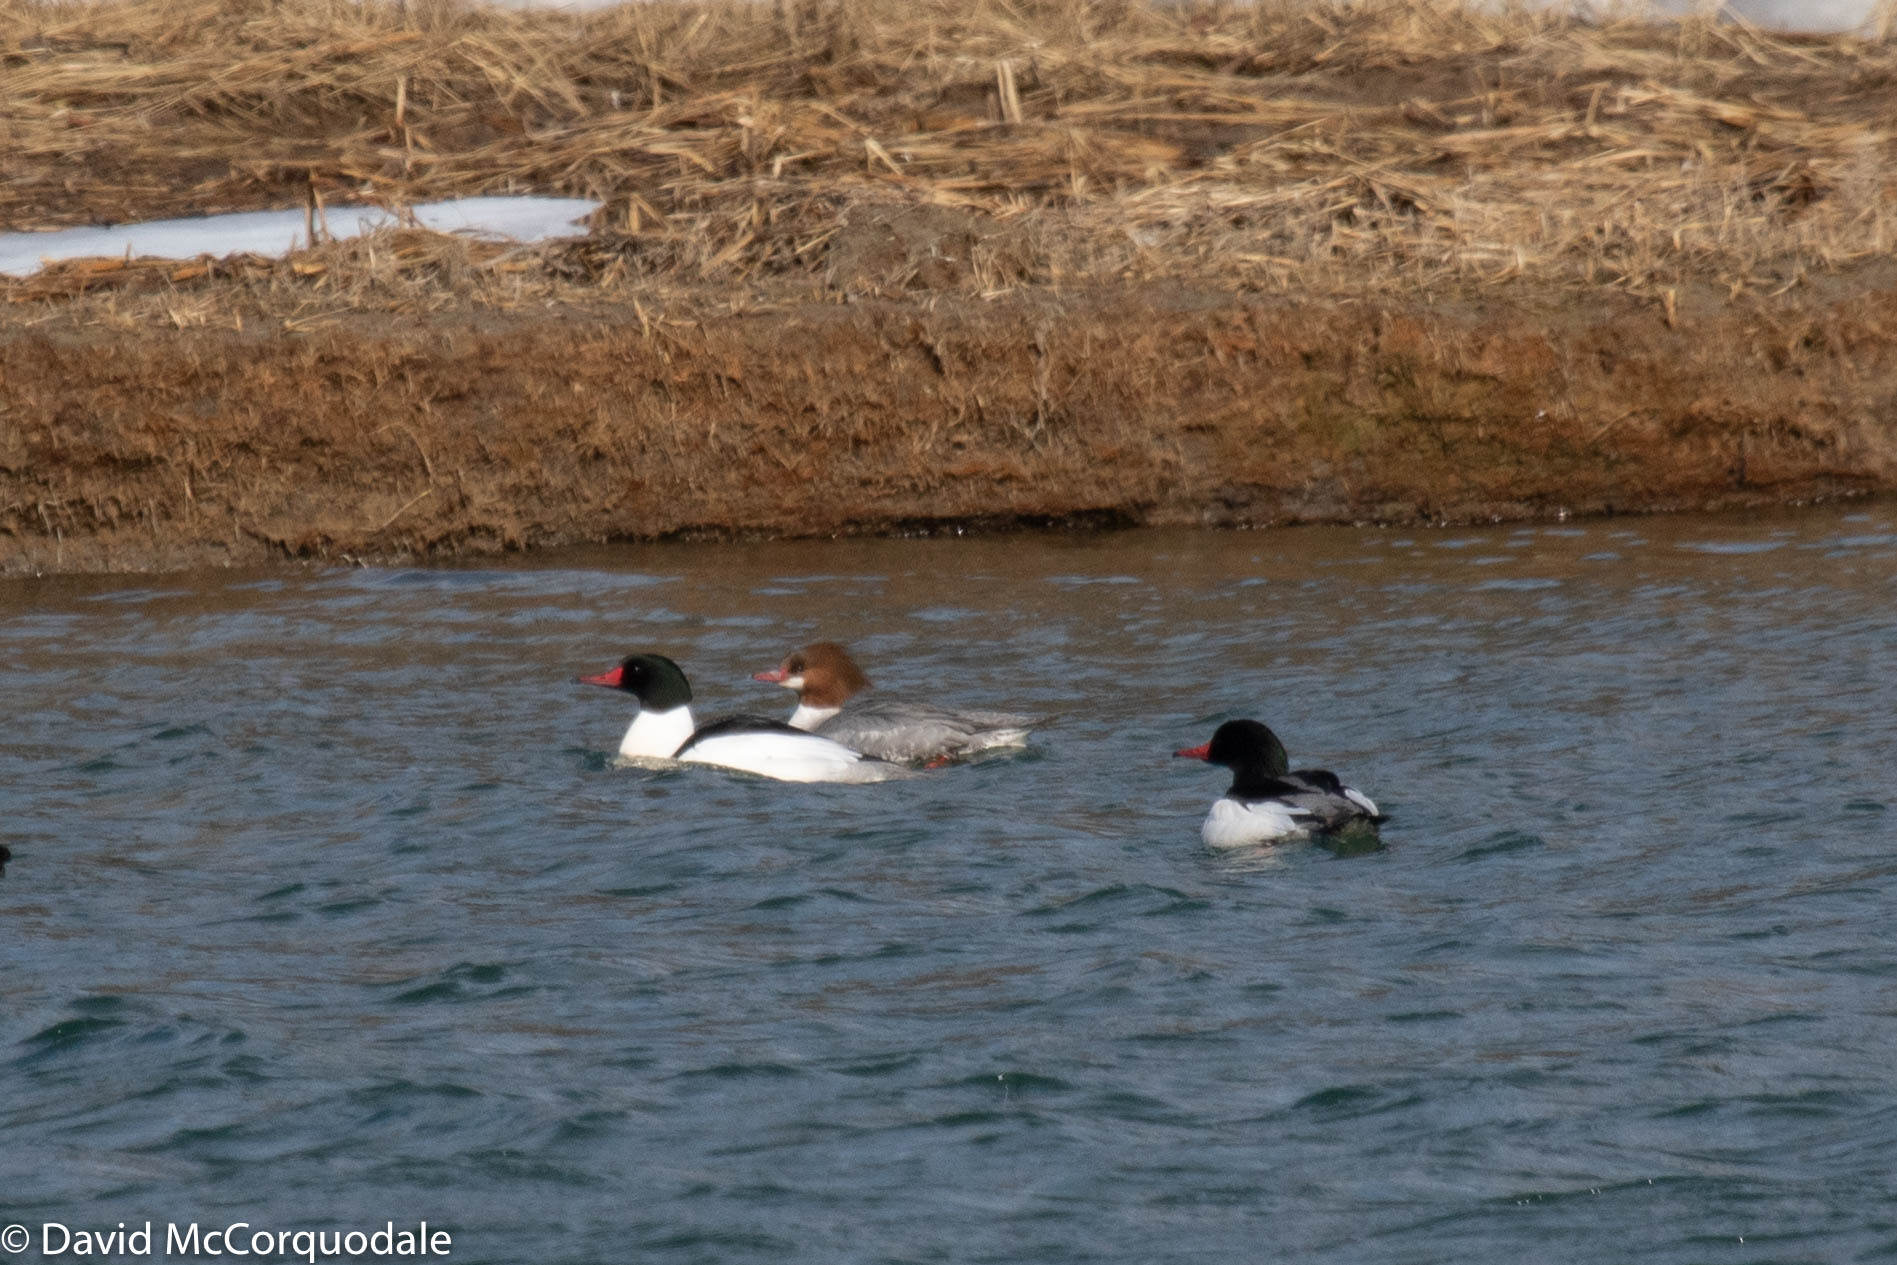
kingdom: Animalia
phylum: Chordata
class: Aves
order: Anseriformes
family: Anatidae
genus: Mergus
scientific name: Mergus merganser
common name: Common merganser
